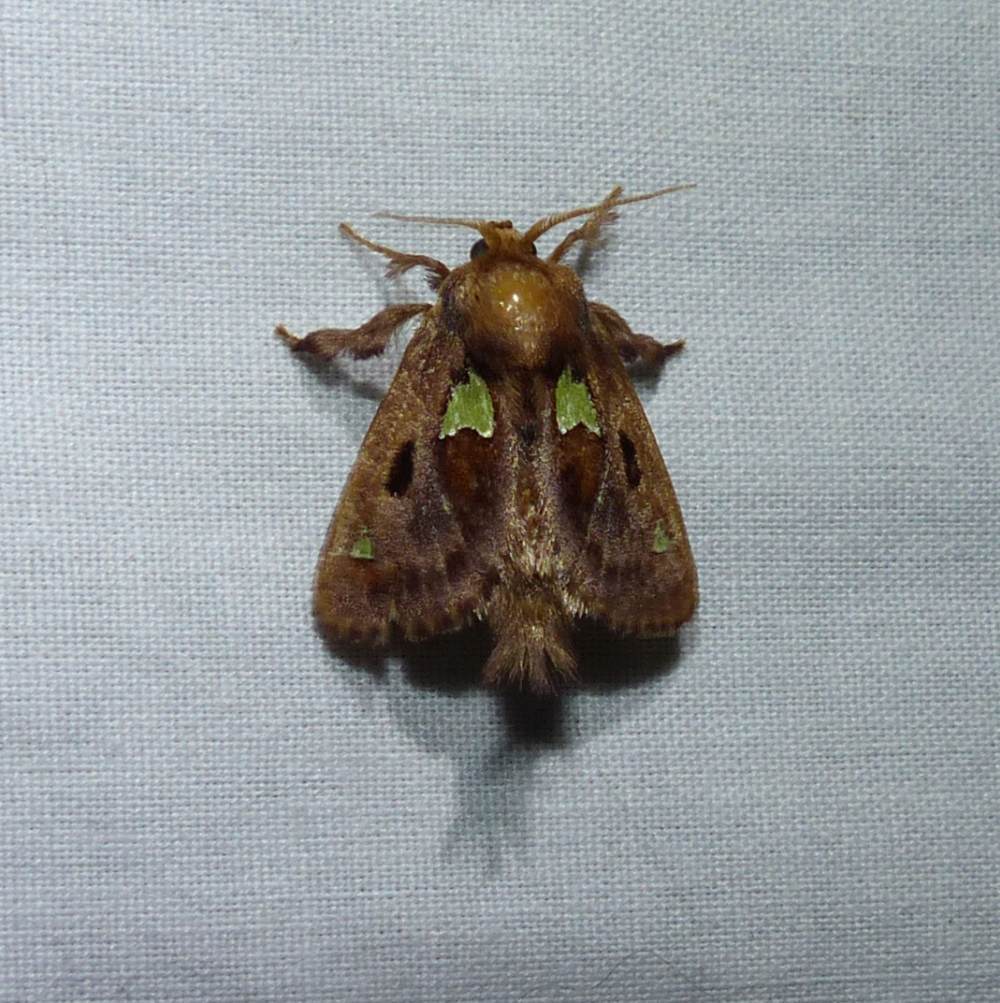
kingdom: Animalia
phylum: Arthropoda
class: Insecta
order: Lepidoptera
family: Limacodidae
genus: Euclea
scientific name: Euclea delphinii
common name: Spiny oak-slug moth
